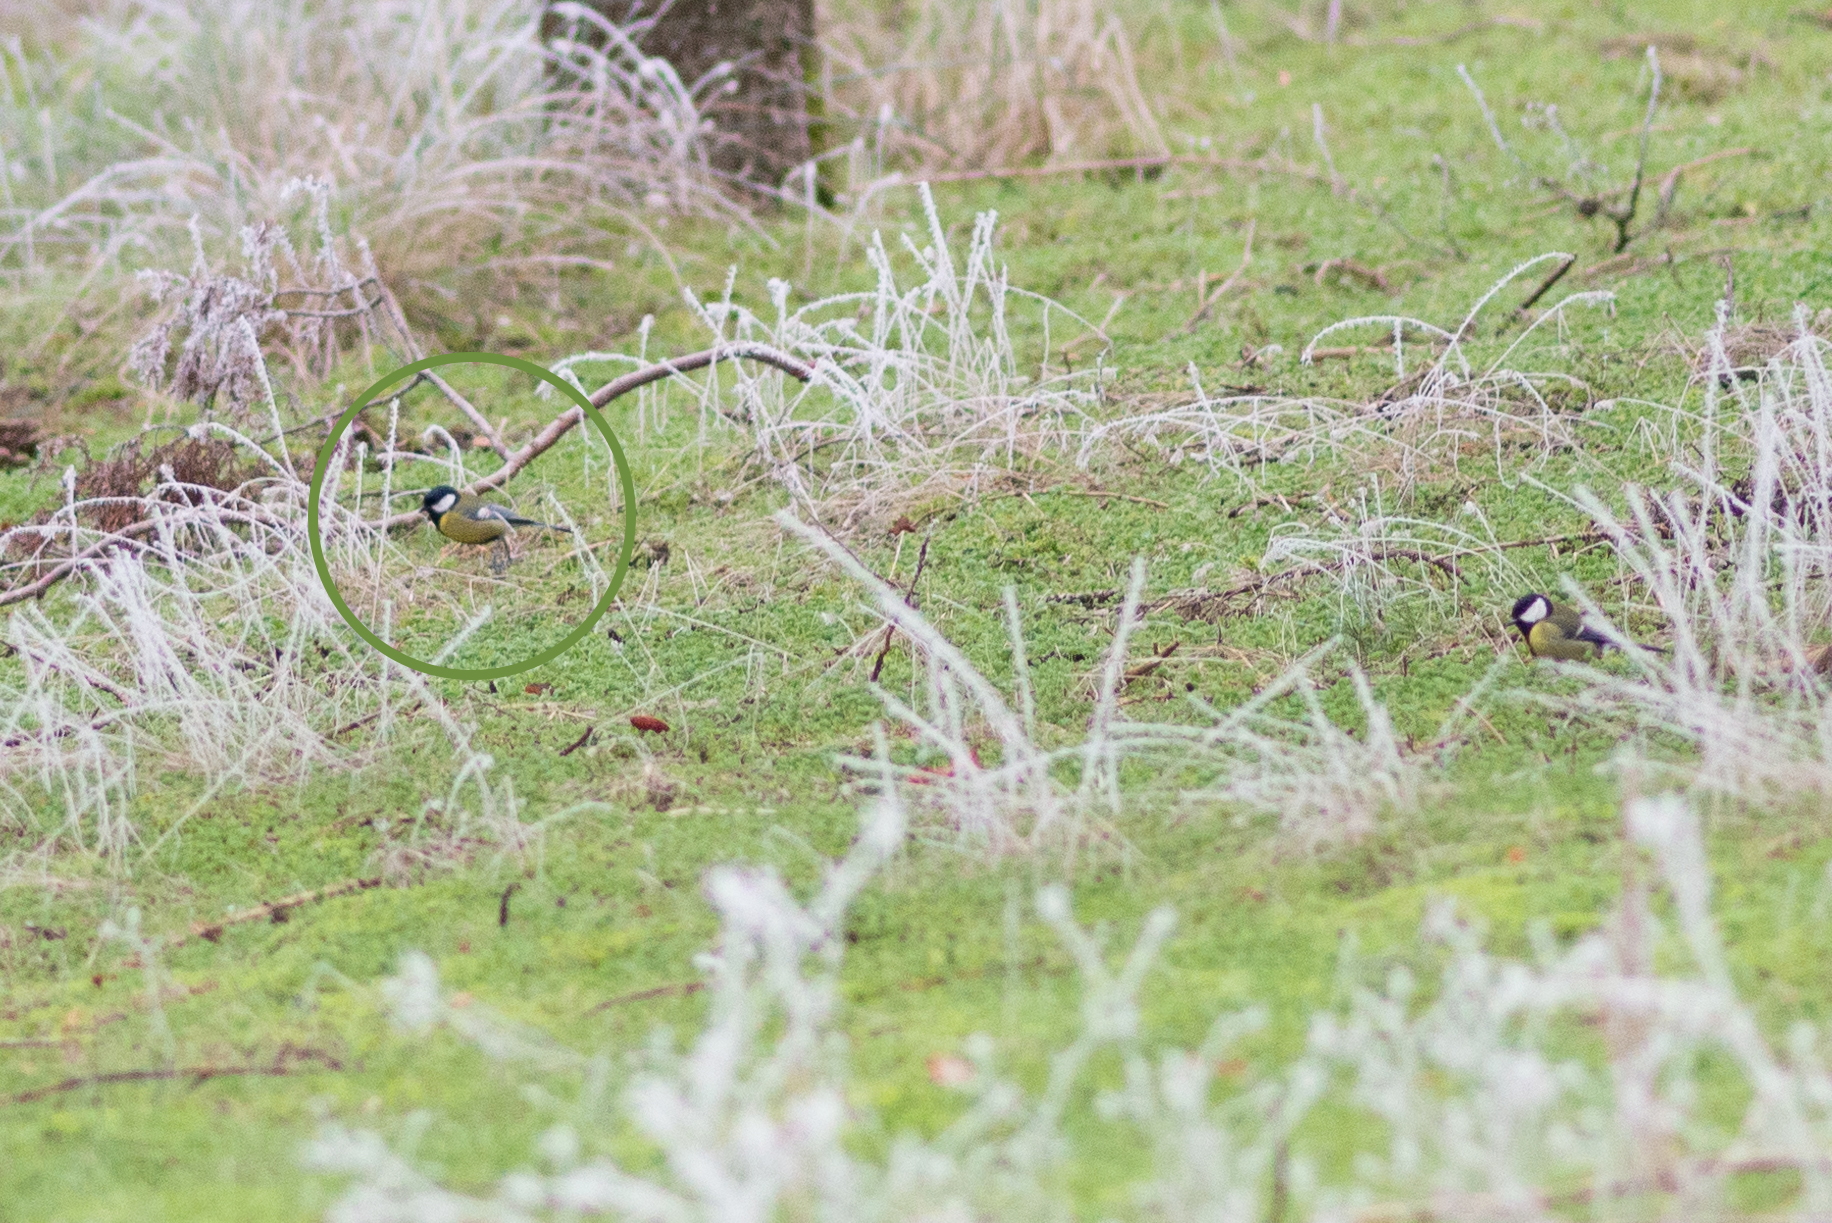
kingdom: Animalia
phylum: Chordata
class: Aves
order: Passeriformes
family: Paridae
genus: Parus
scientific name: Parus major
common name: Great tit
